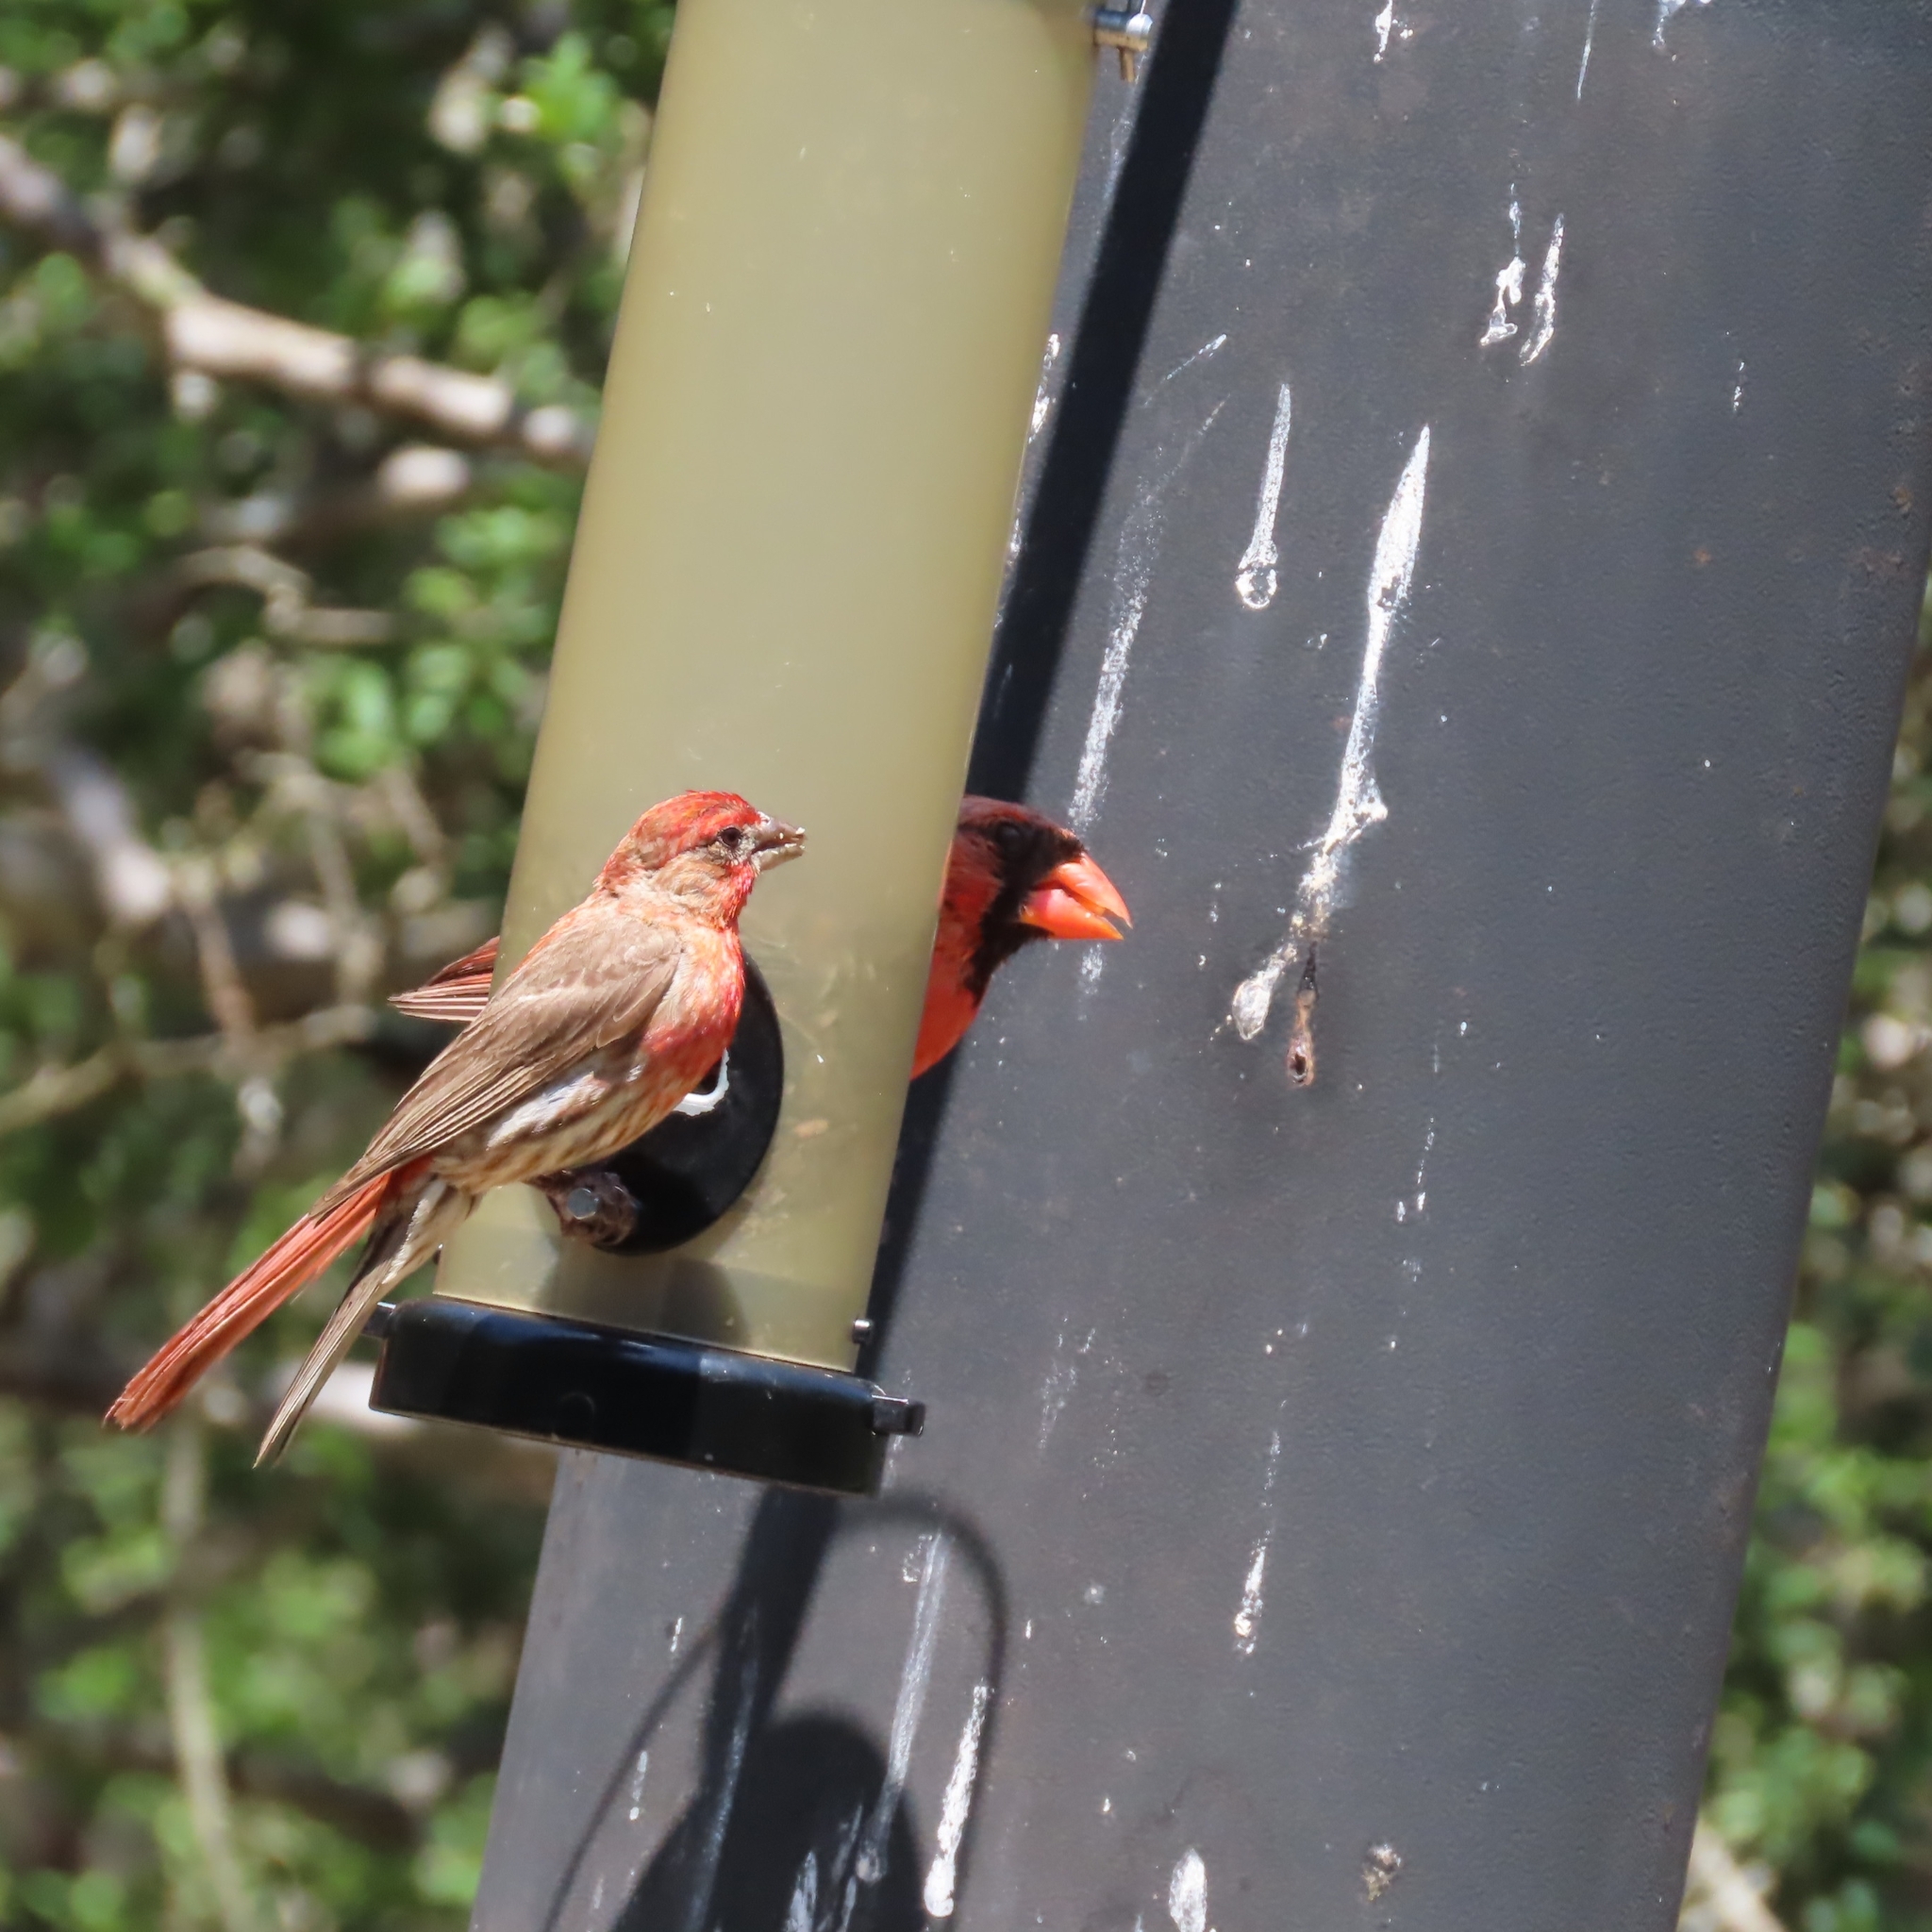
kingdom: Animalia
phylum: Chordata
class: Aves
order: Passeriformes
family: Fringillidae
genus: Haemorhous
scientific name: Haemorhous mexicanus
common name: House finch
